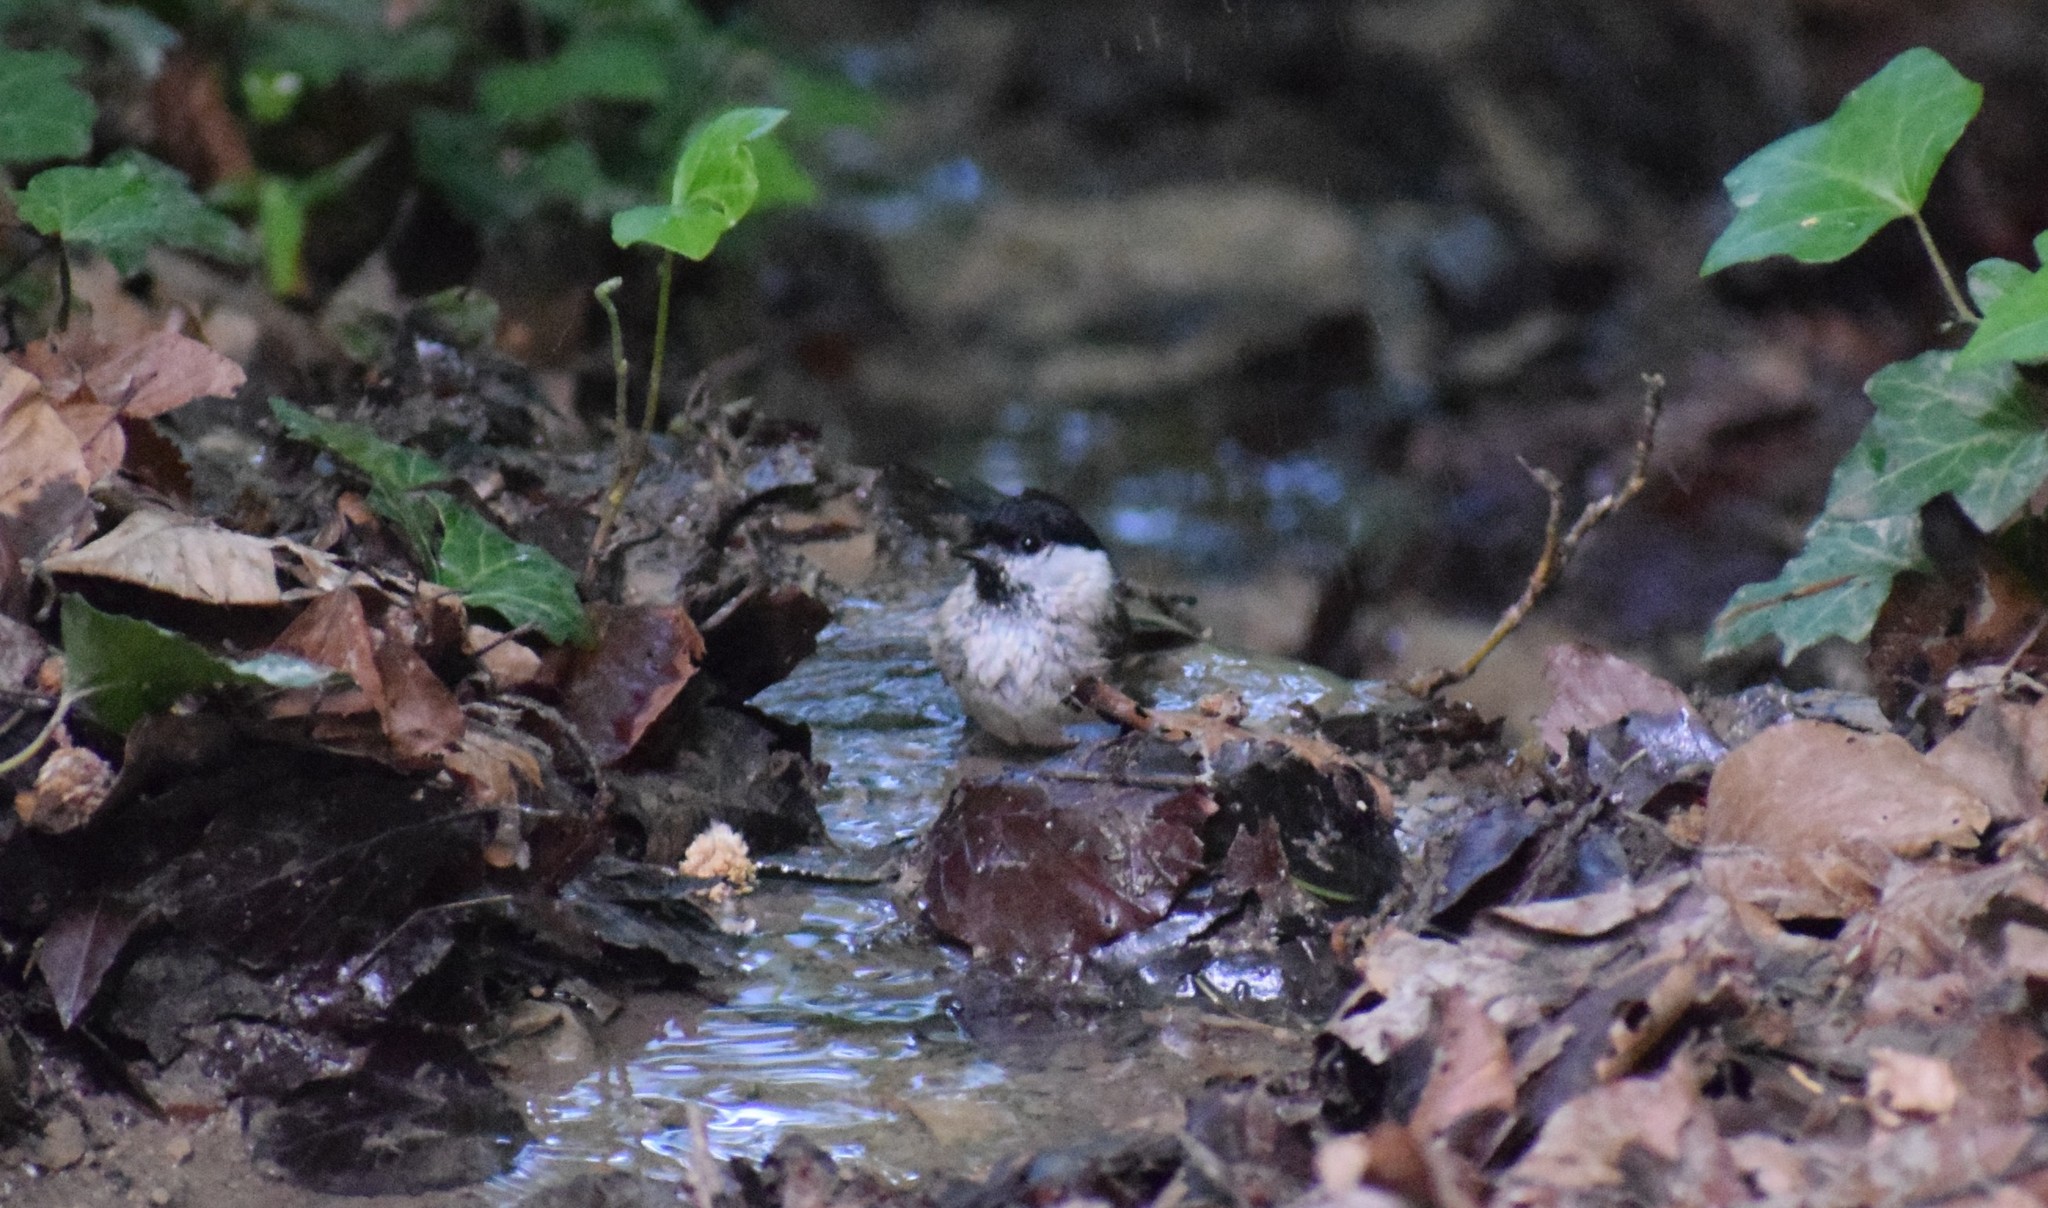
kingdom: Animalia
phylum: Chordata
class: Aves
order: Passeriformes
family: Paridae
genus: Poecile
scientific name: Poecile palustris
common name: Marsh tit
